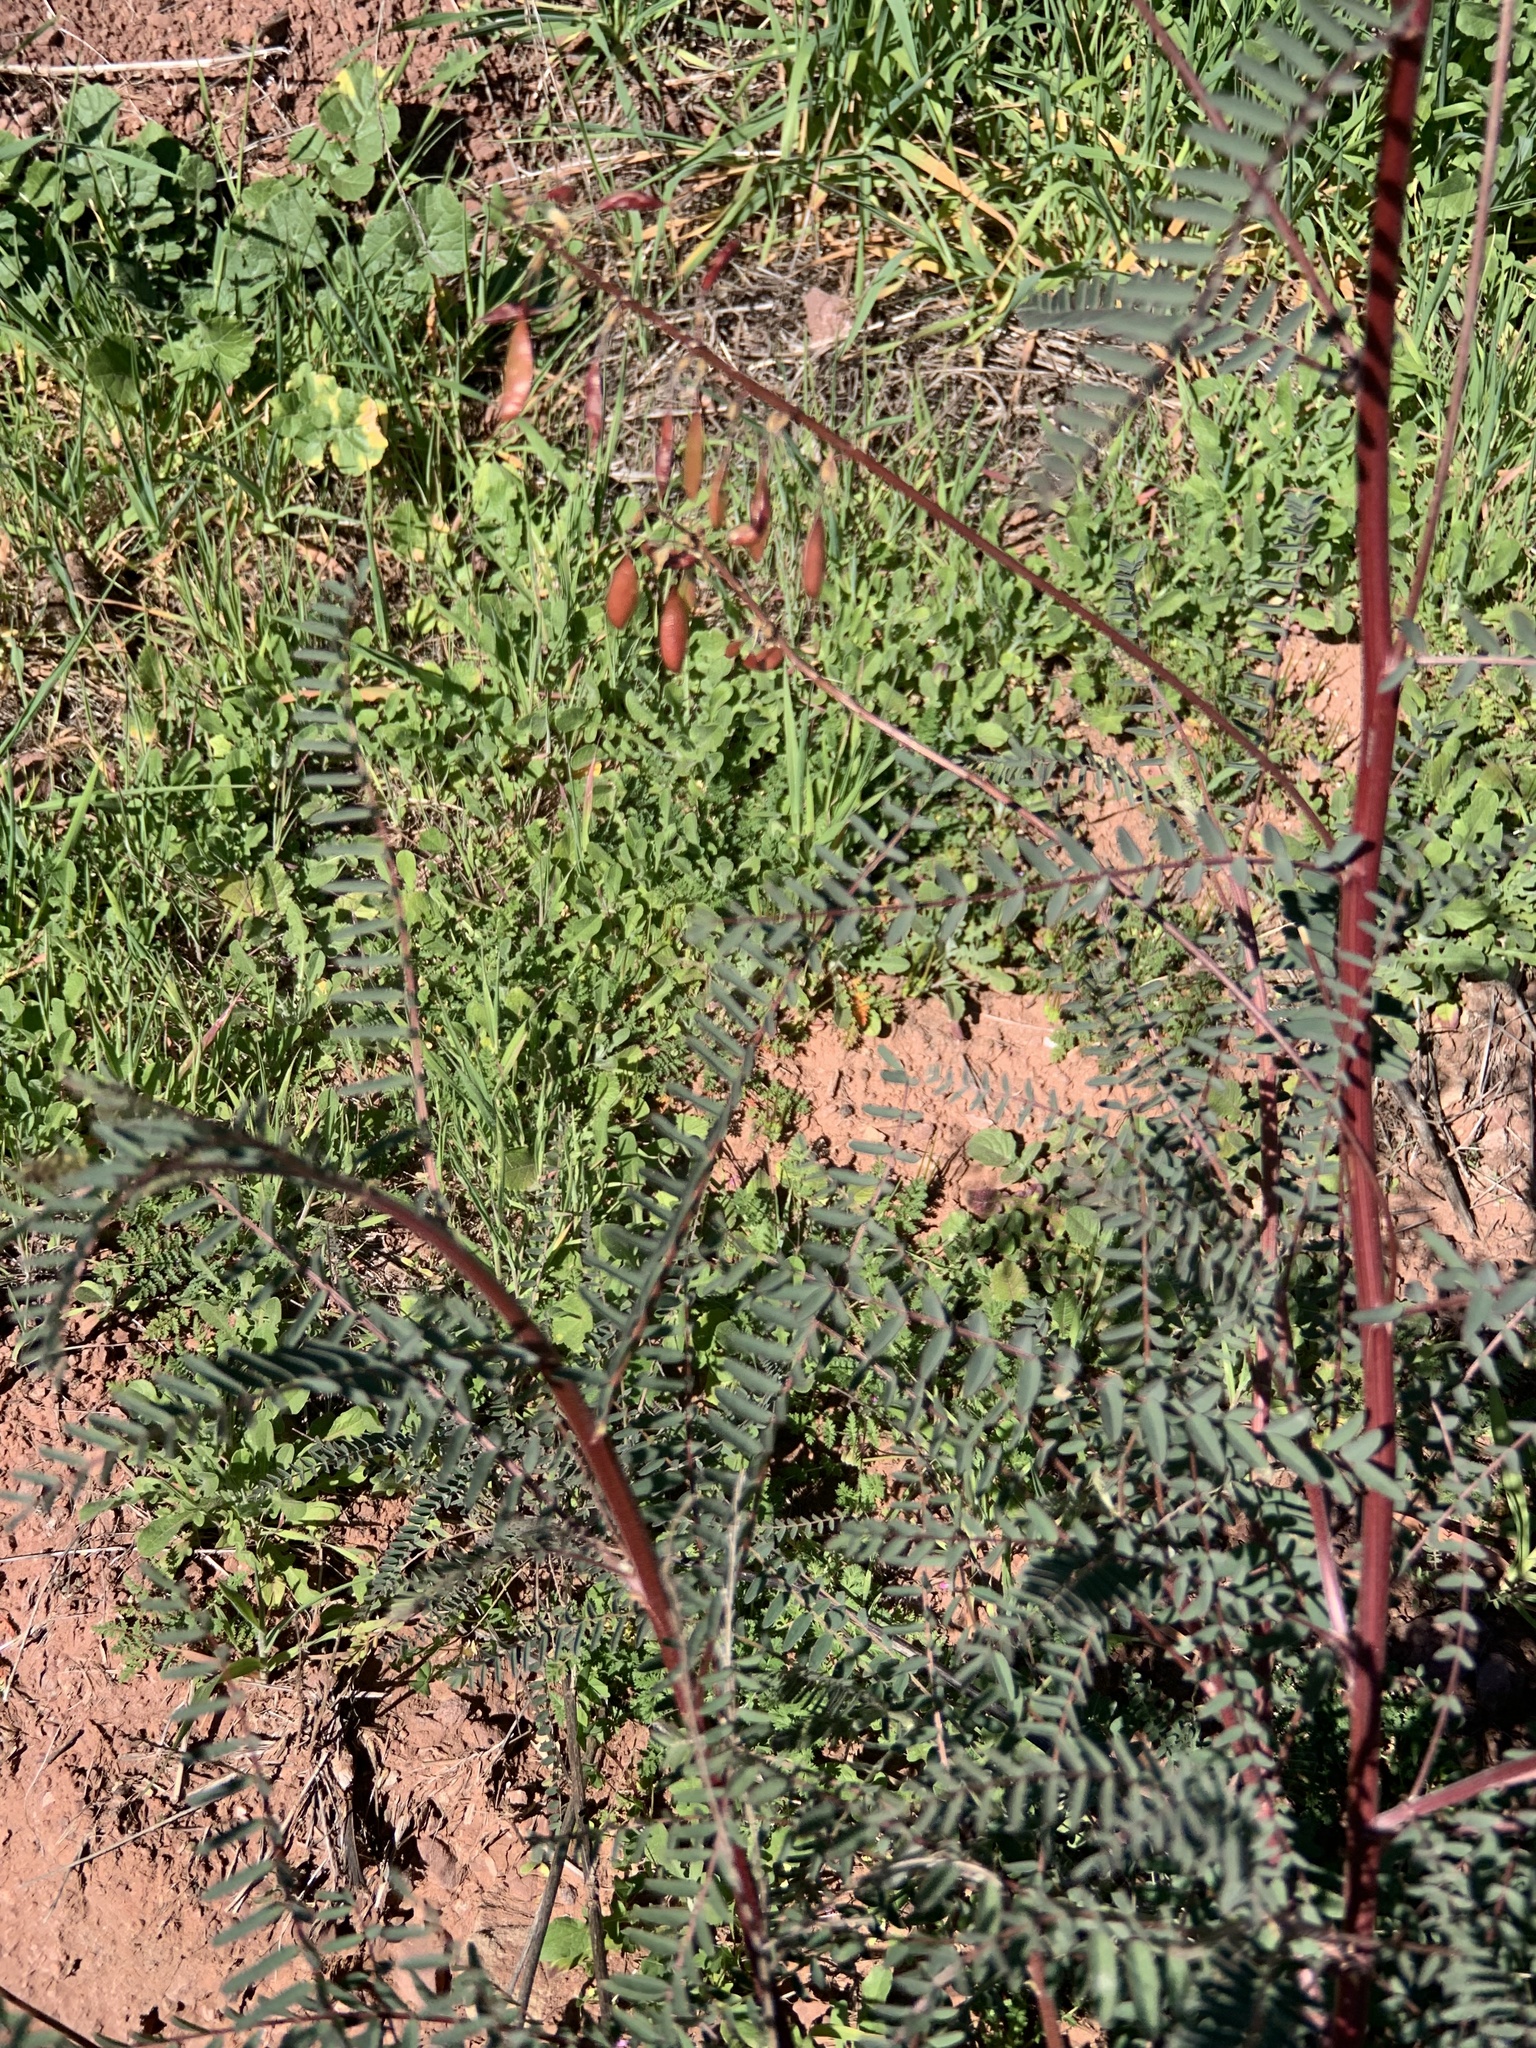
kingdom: Plantae
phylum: Tracheophyta
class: Magnoliopsida
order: Fabales
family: Fabaceae
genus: Astragalus
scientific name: Astragalus trichopodus
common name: Santa barbara milk-vetch
